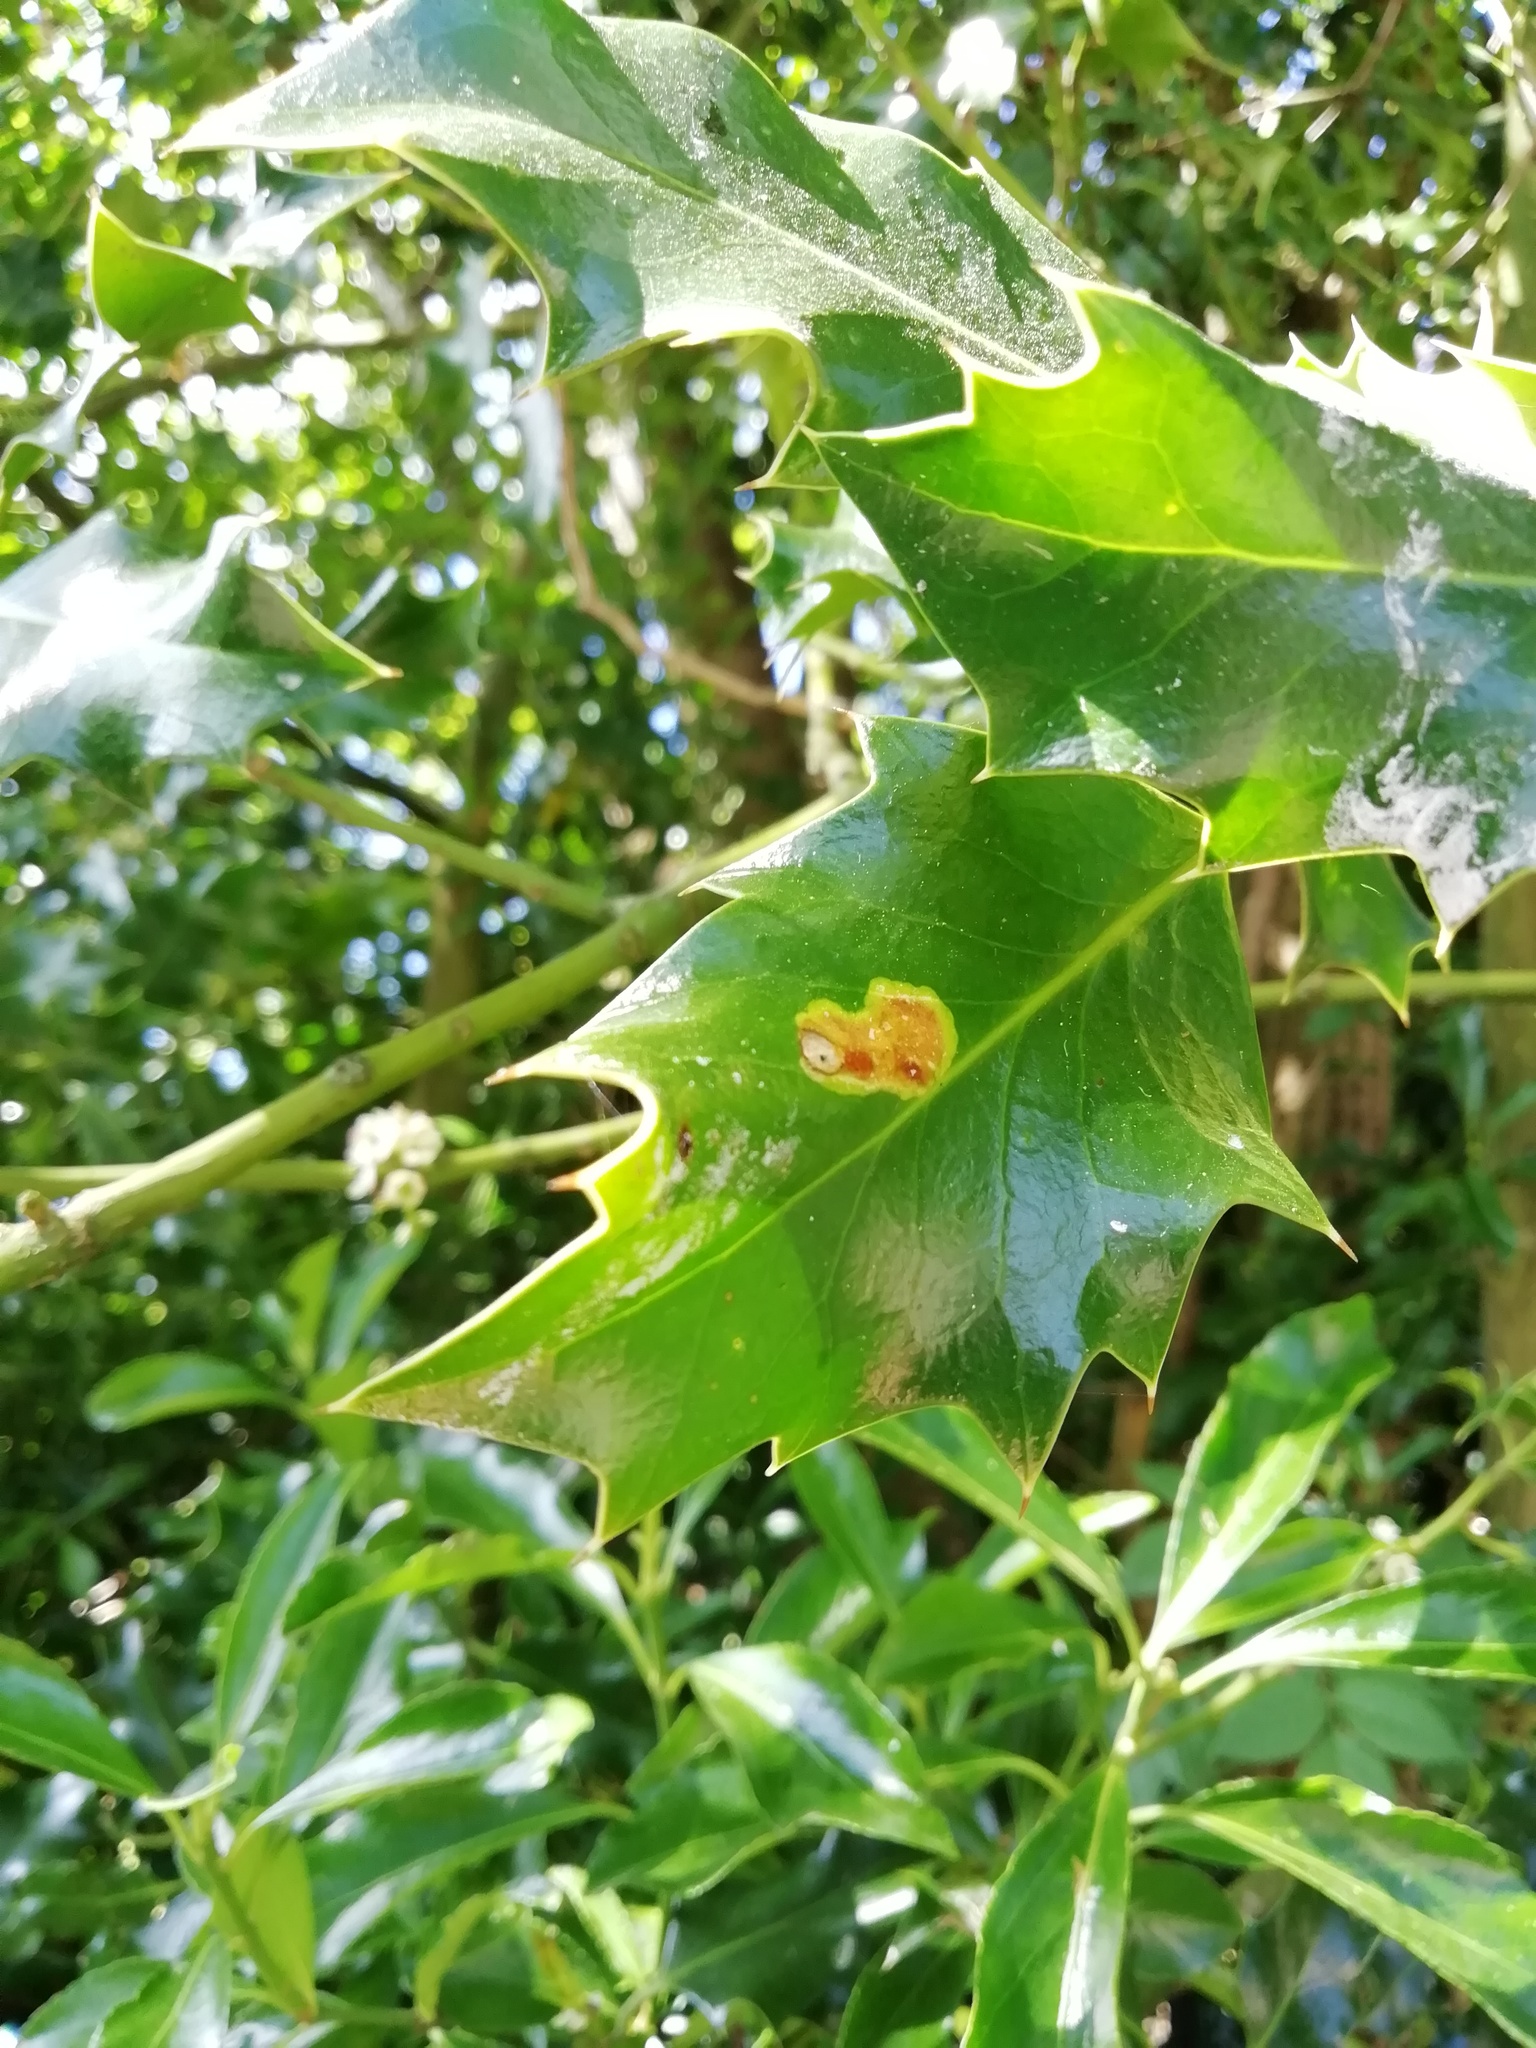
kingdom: Animalia
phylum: Arthropoda
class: Insecta
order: Diptera
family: Agromyzidae
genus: Phytomyza
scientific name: Phytomyza ilicis
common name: Holly leafminer
